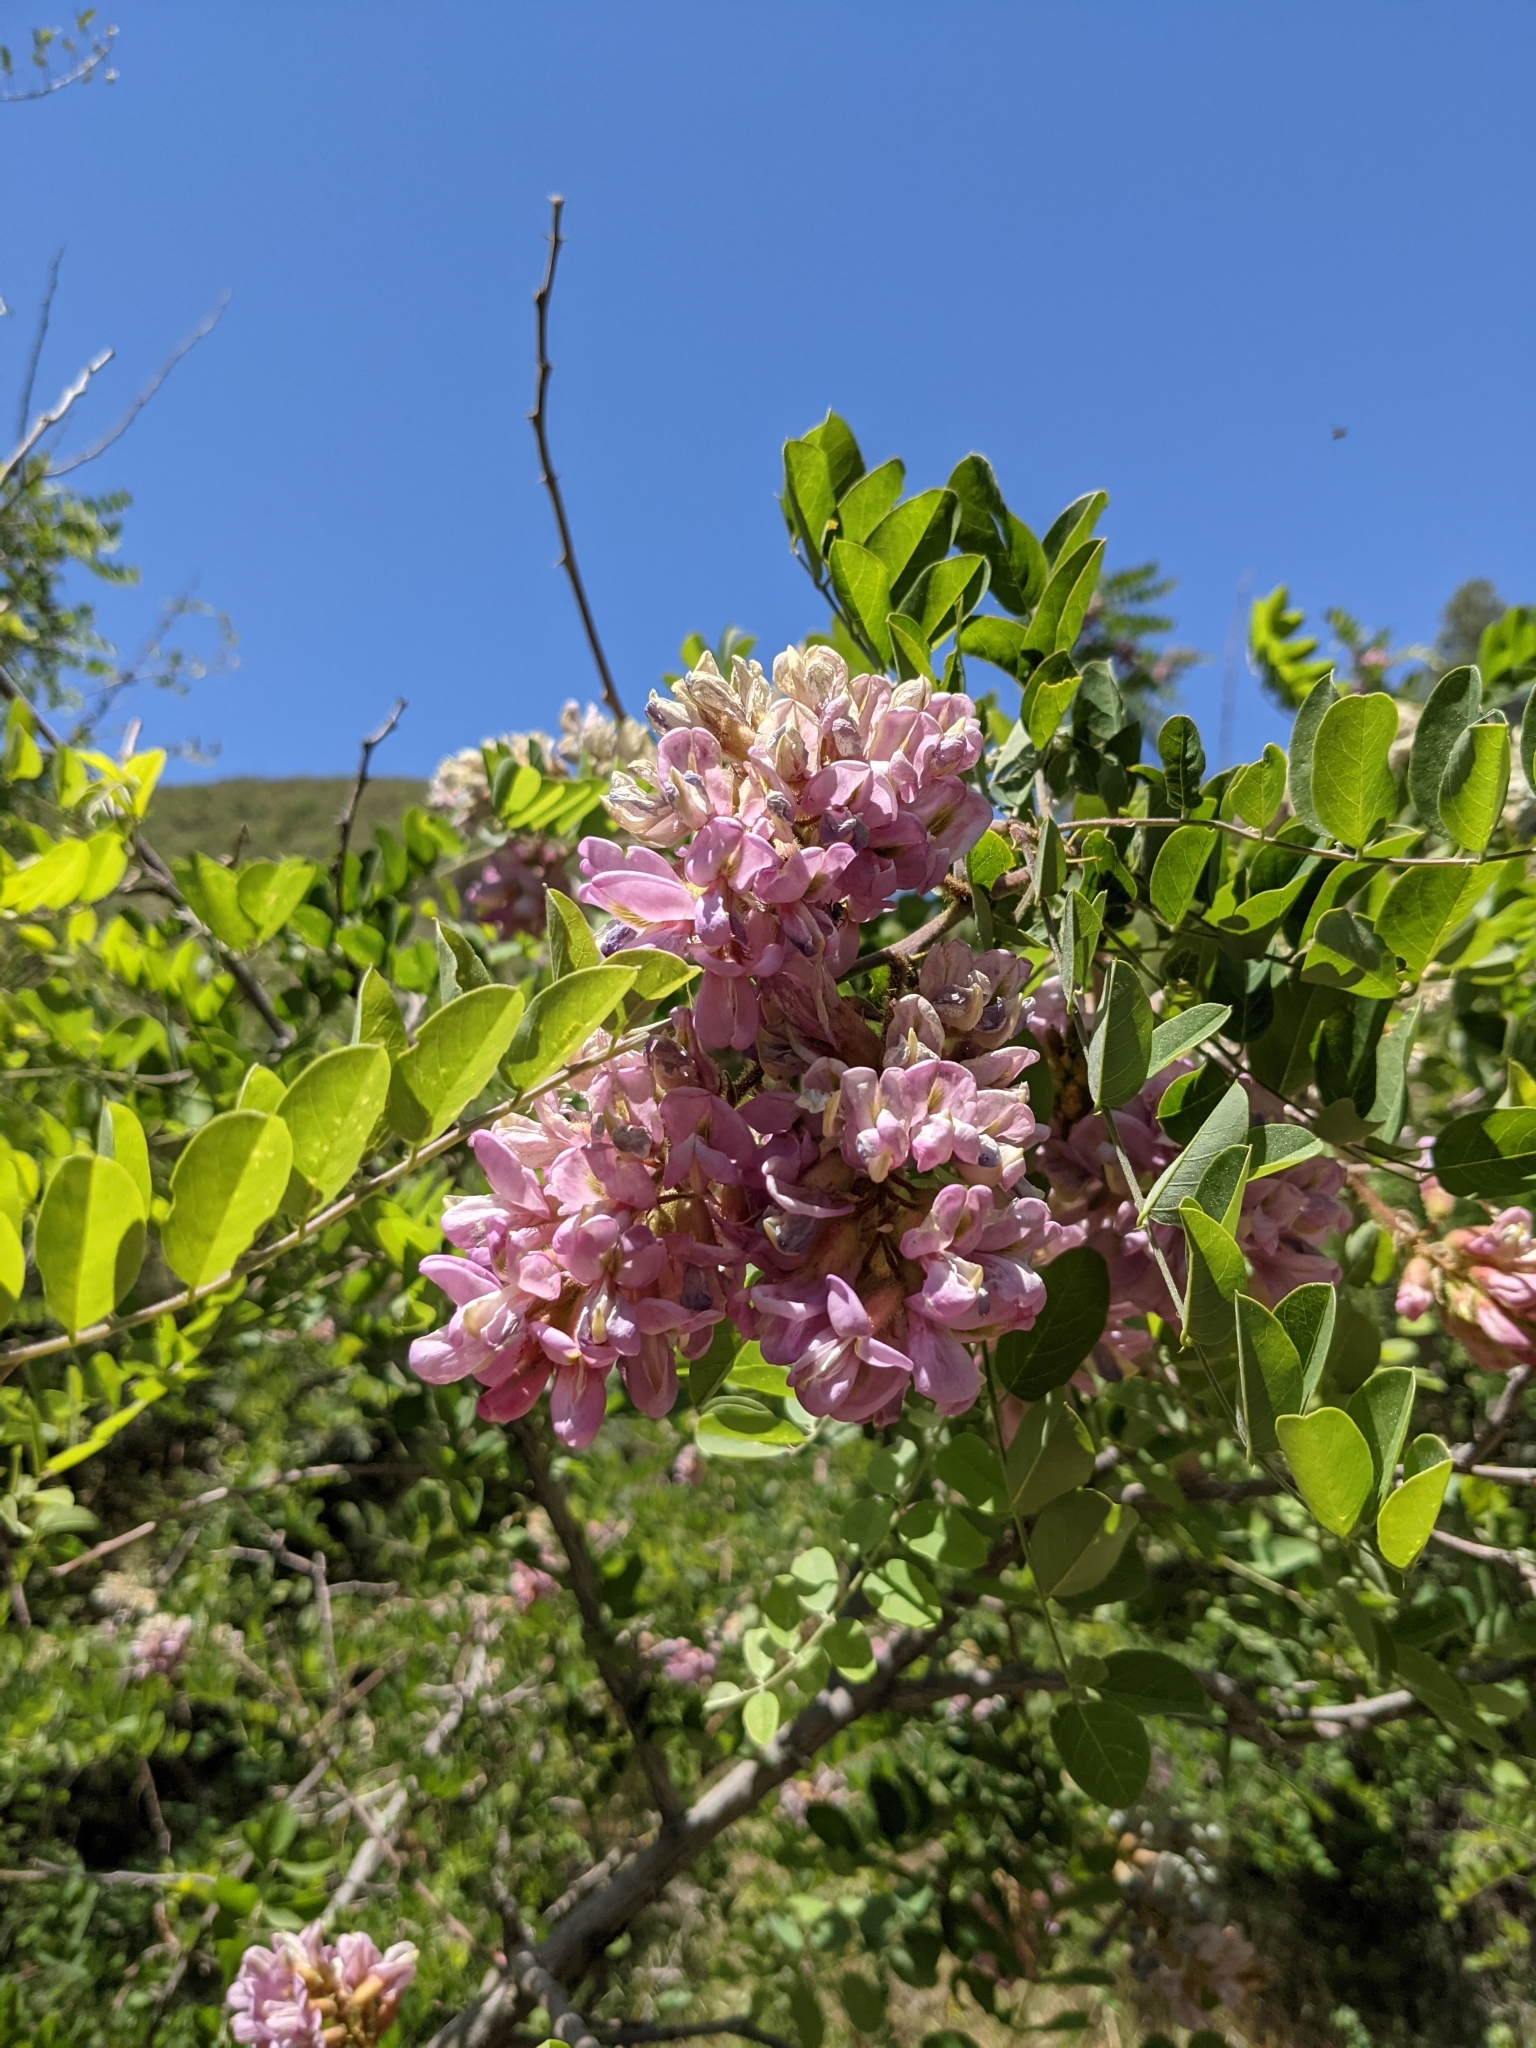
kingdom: Plantae
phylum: Tracheophyta
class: Magnoliopsida
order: Fabales
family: Fabaceae
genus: Robinia
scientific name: Robinia neomexicana
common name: New mexico locust
